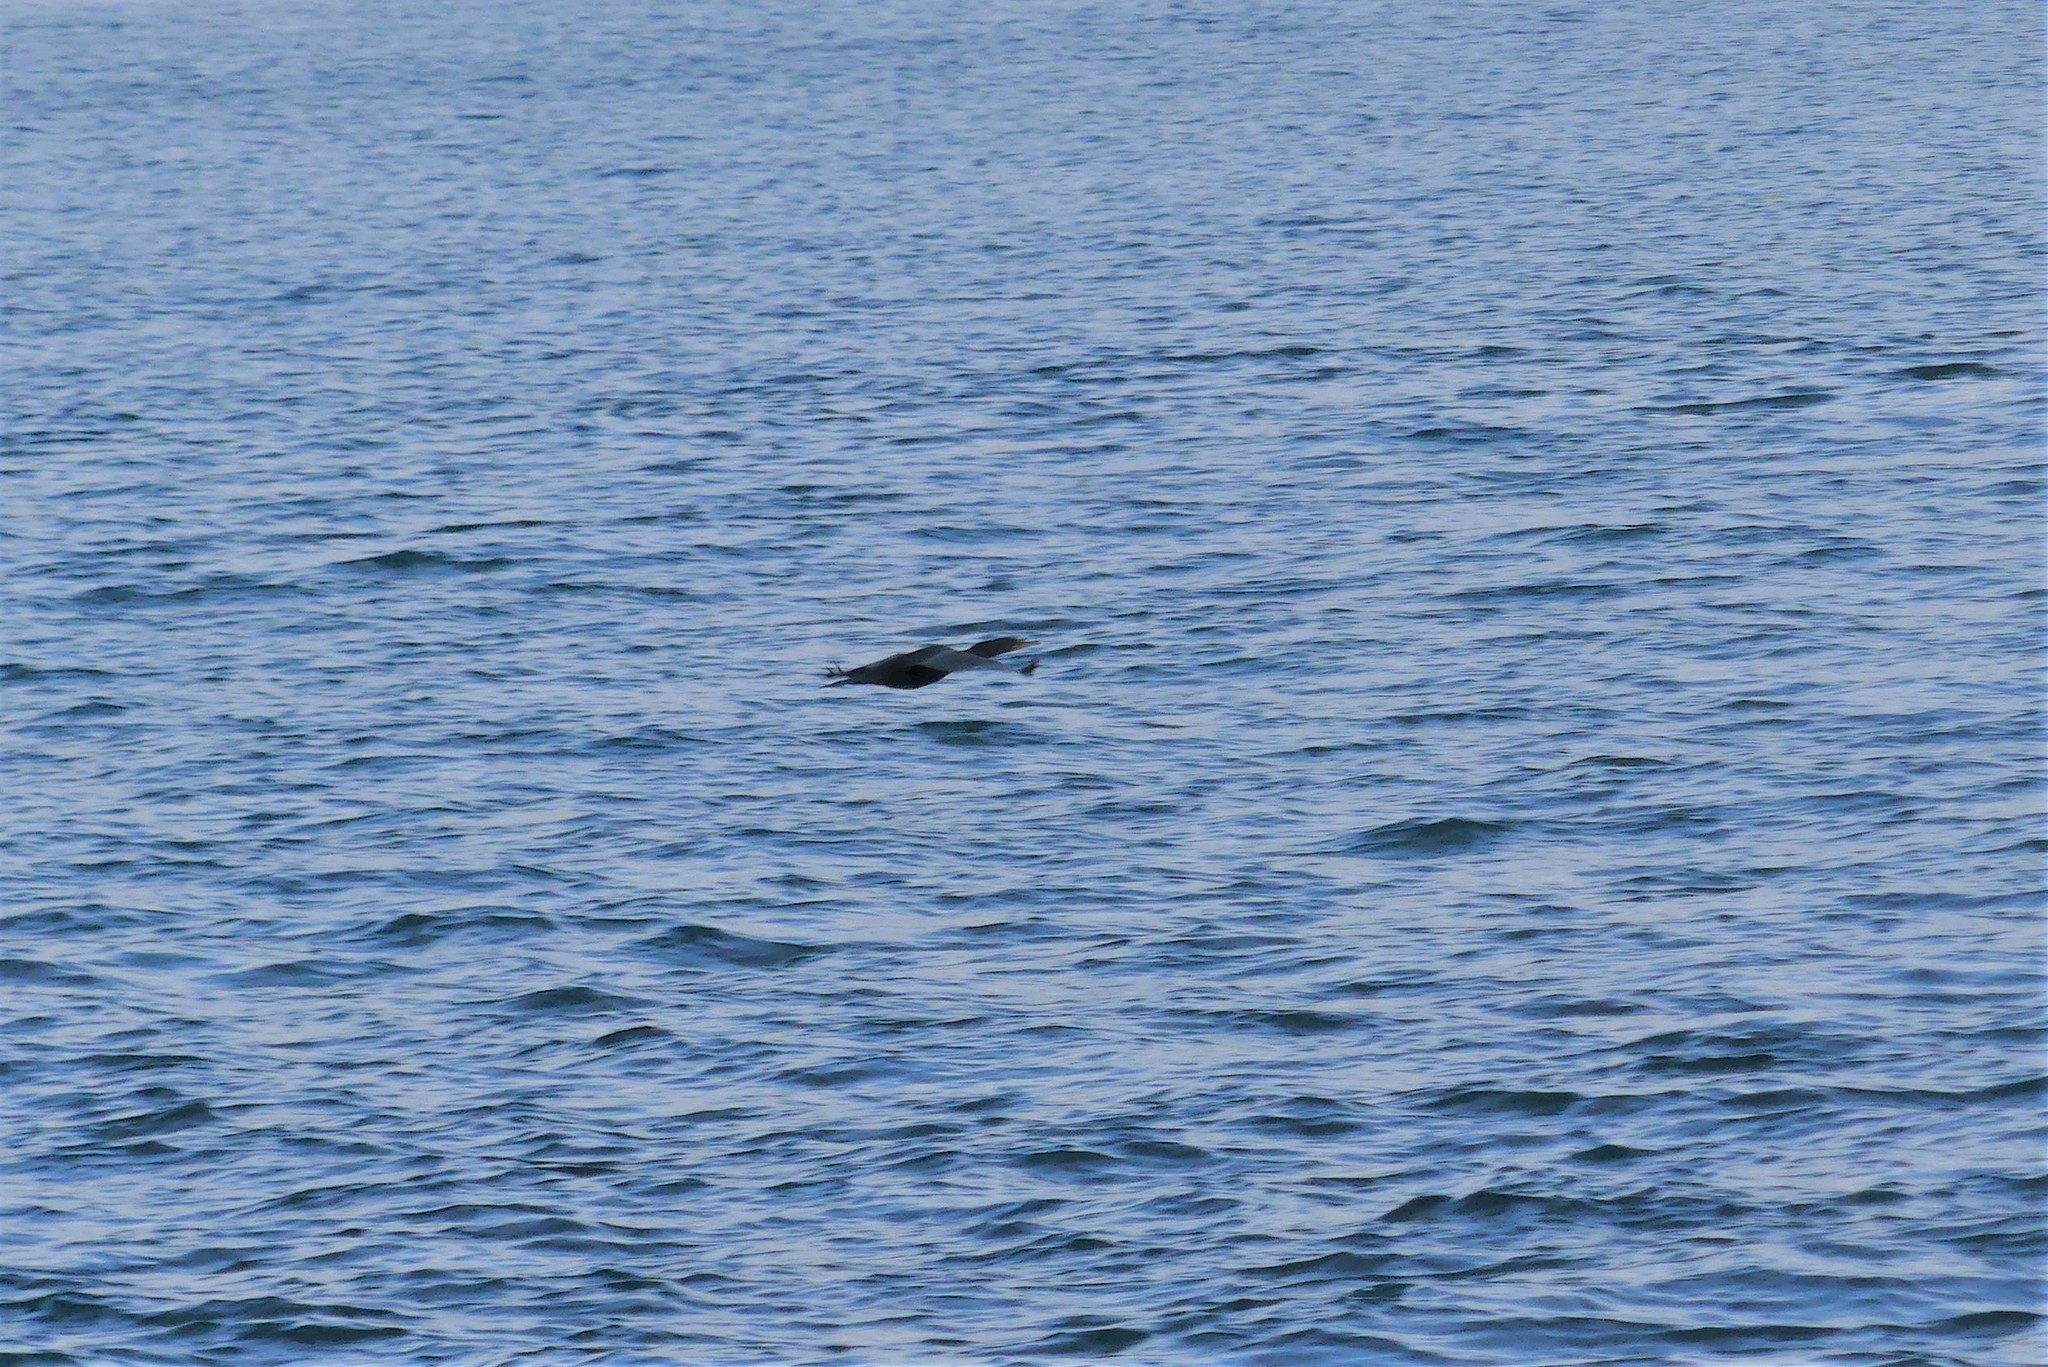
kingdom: Animalia
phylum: Chordata
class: Aves
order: Suliformes
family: Phalacrocoracidae
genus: Phalacrocorax
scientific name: Phalacrocorax auritus
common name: Double-crested cormorant
